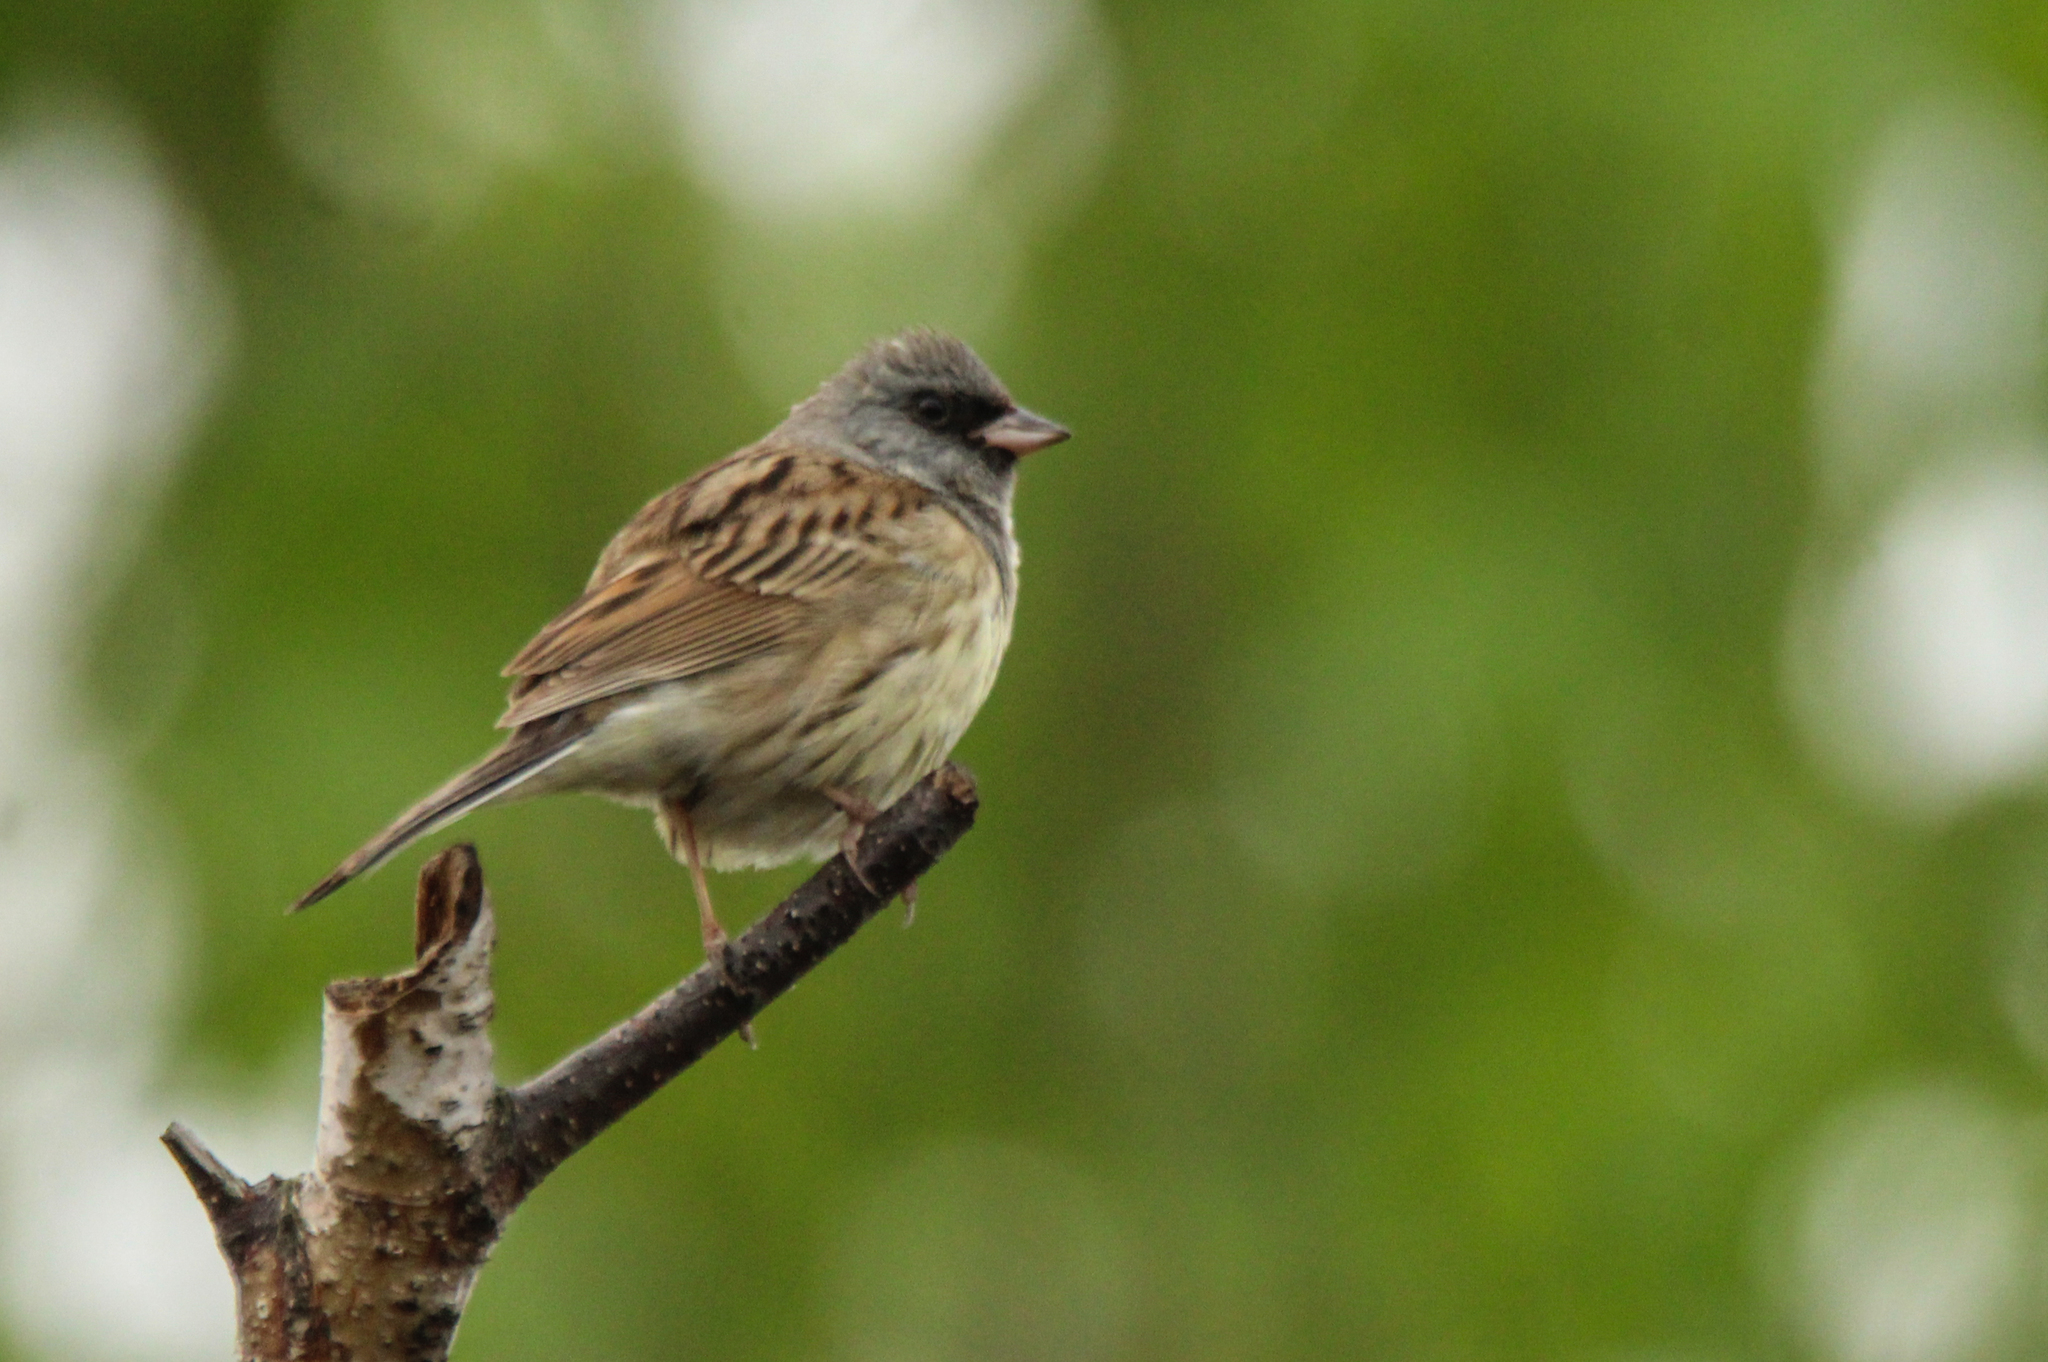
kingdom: Animalia
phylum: Chordata
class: Aves
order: Passeriformes
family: Emberizidae
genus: Emberiza
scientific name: Emberiza spodocephala
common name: Black-faced bunting
